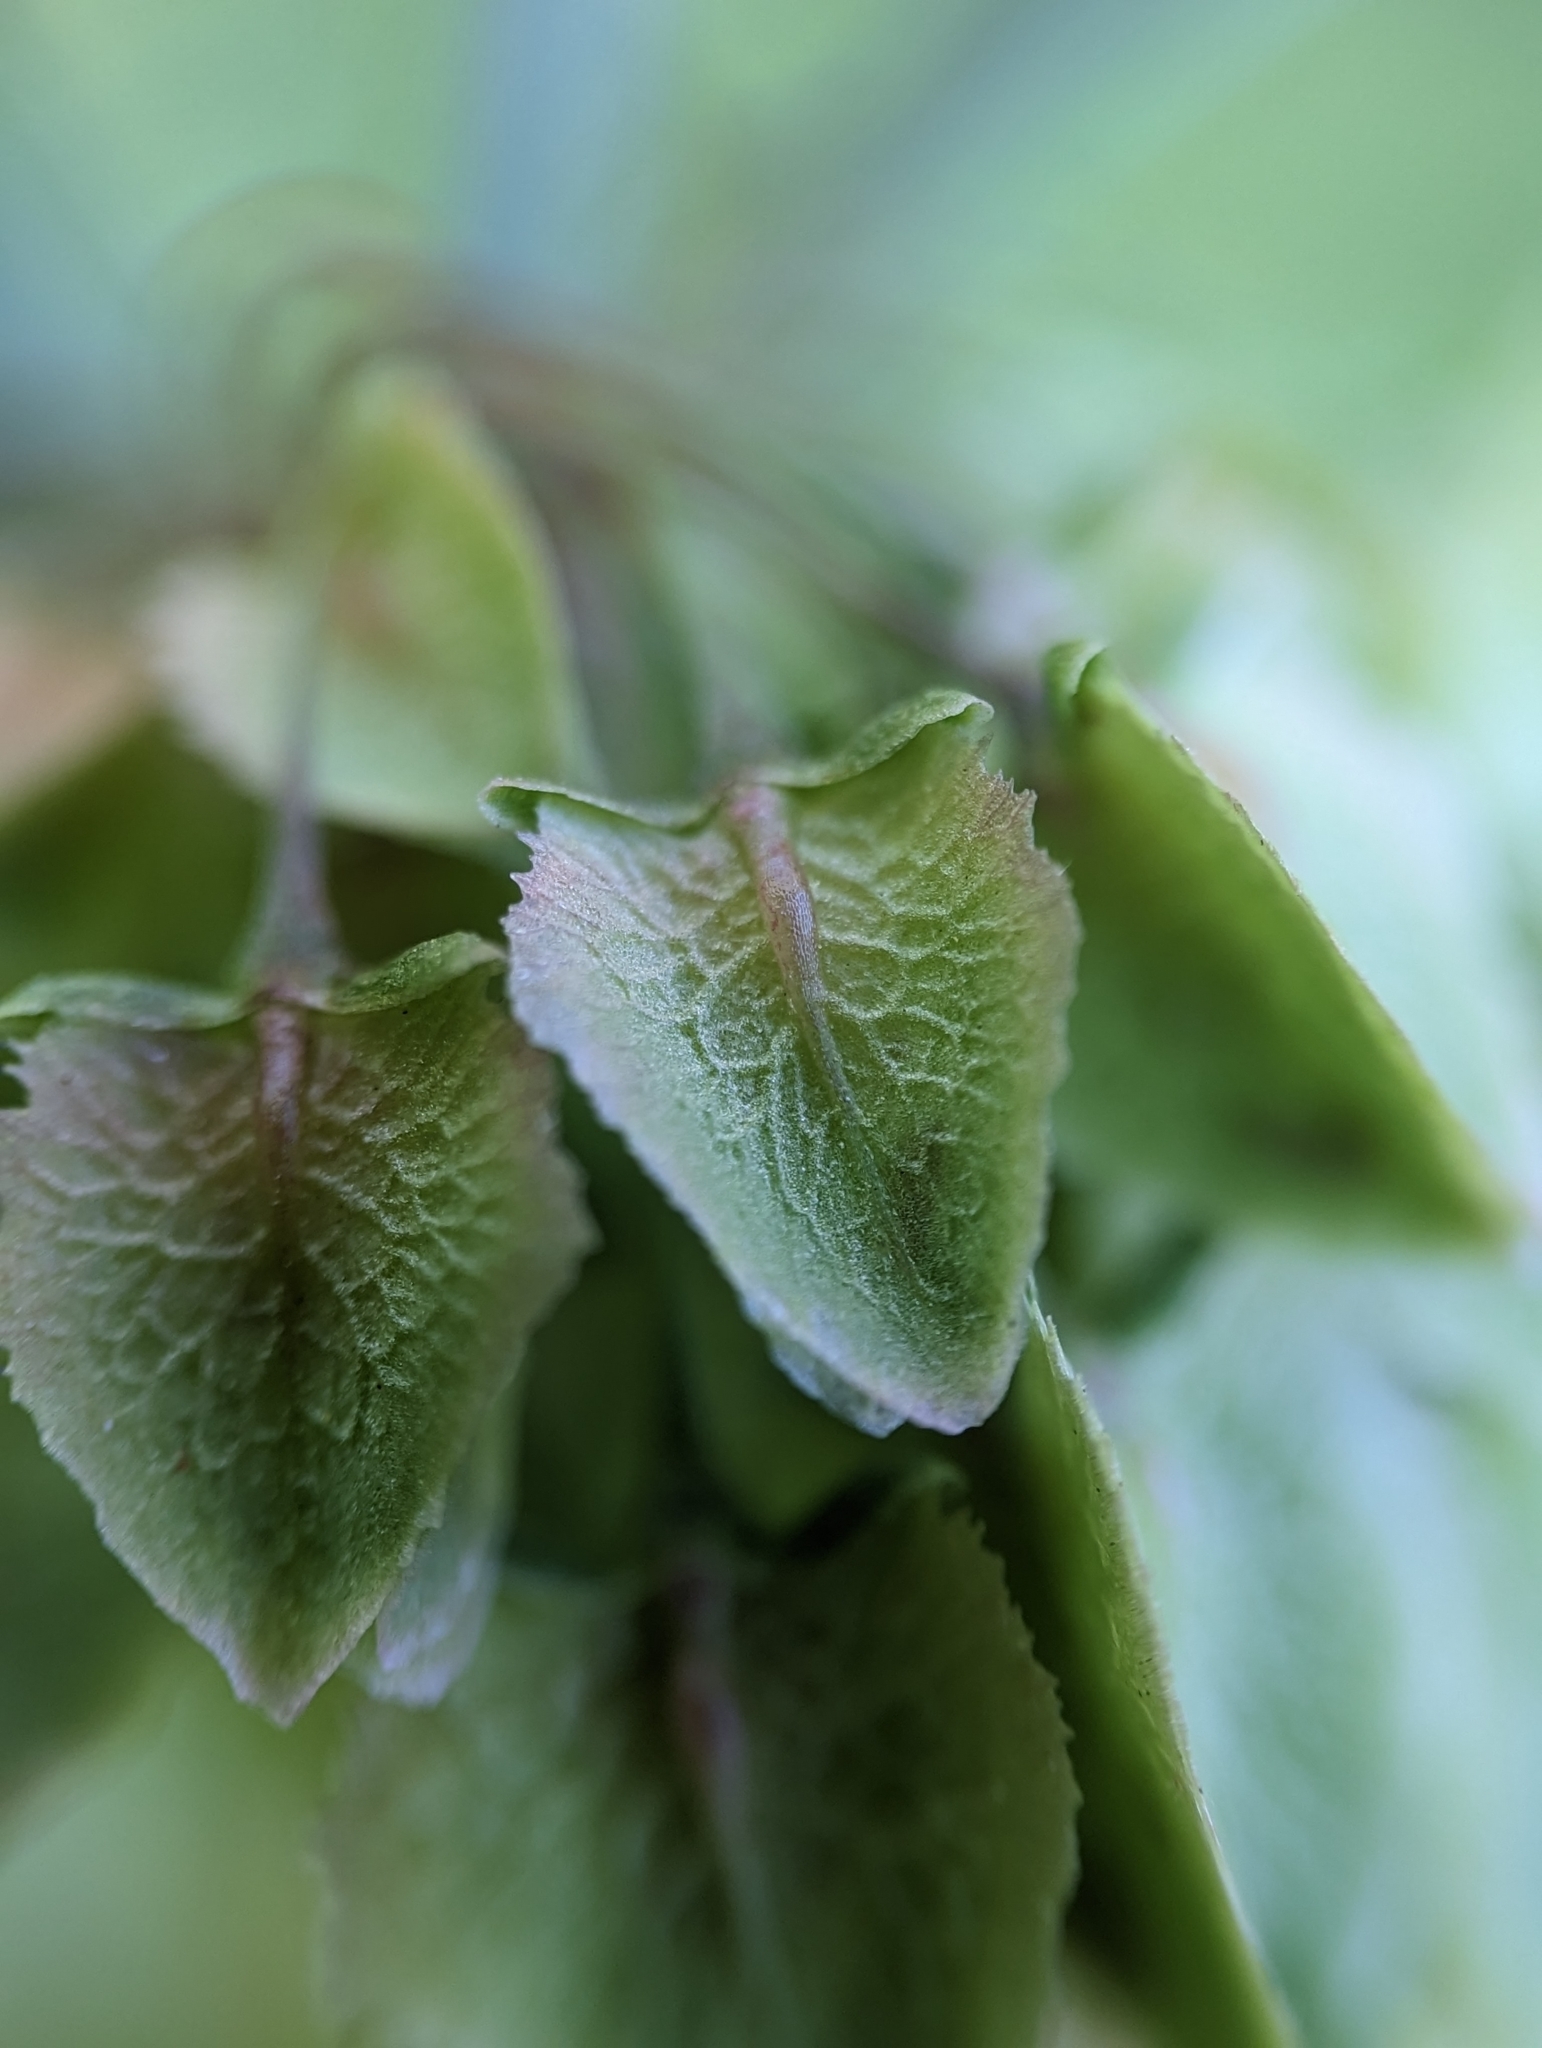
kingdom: Plantae
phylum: Tracheophyta
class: Magnoliopsida
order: Caryophyllales
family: Polygonaceae
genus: Rumex
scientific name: Rumex cristatus
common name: Greek dock
